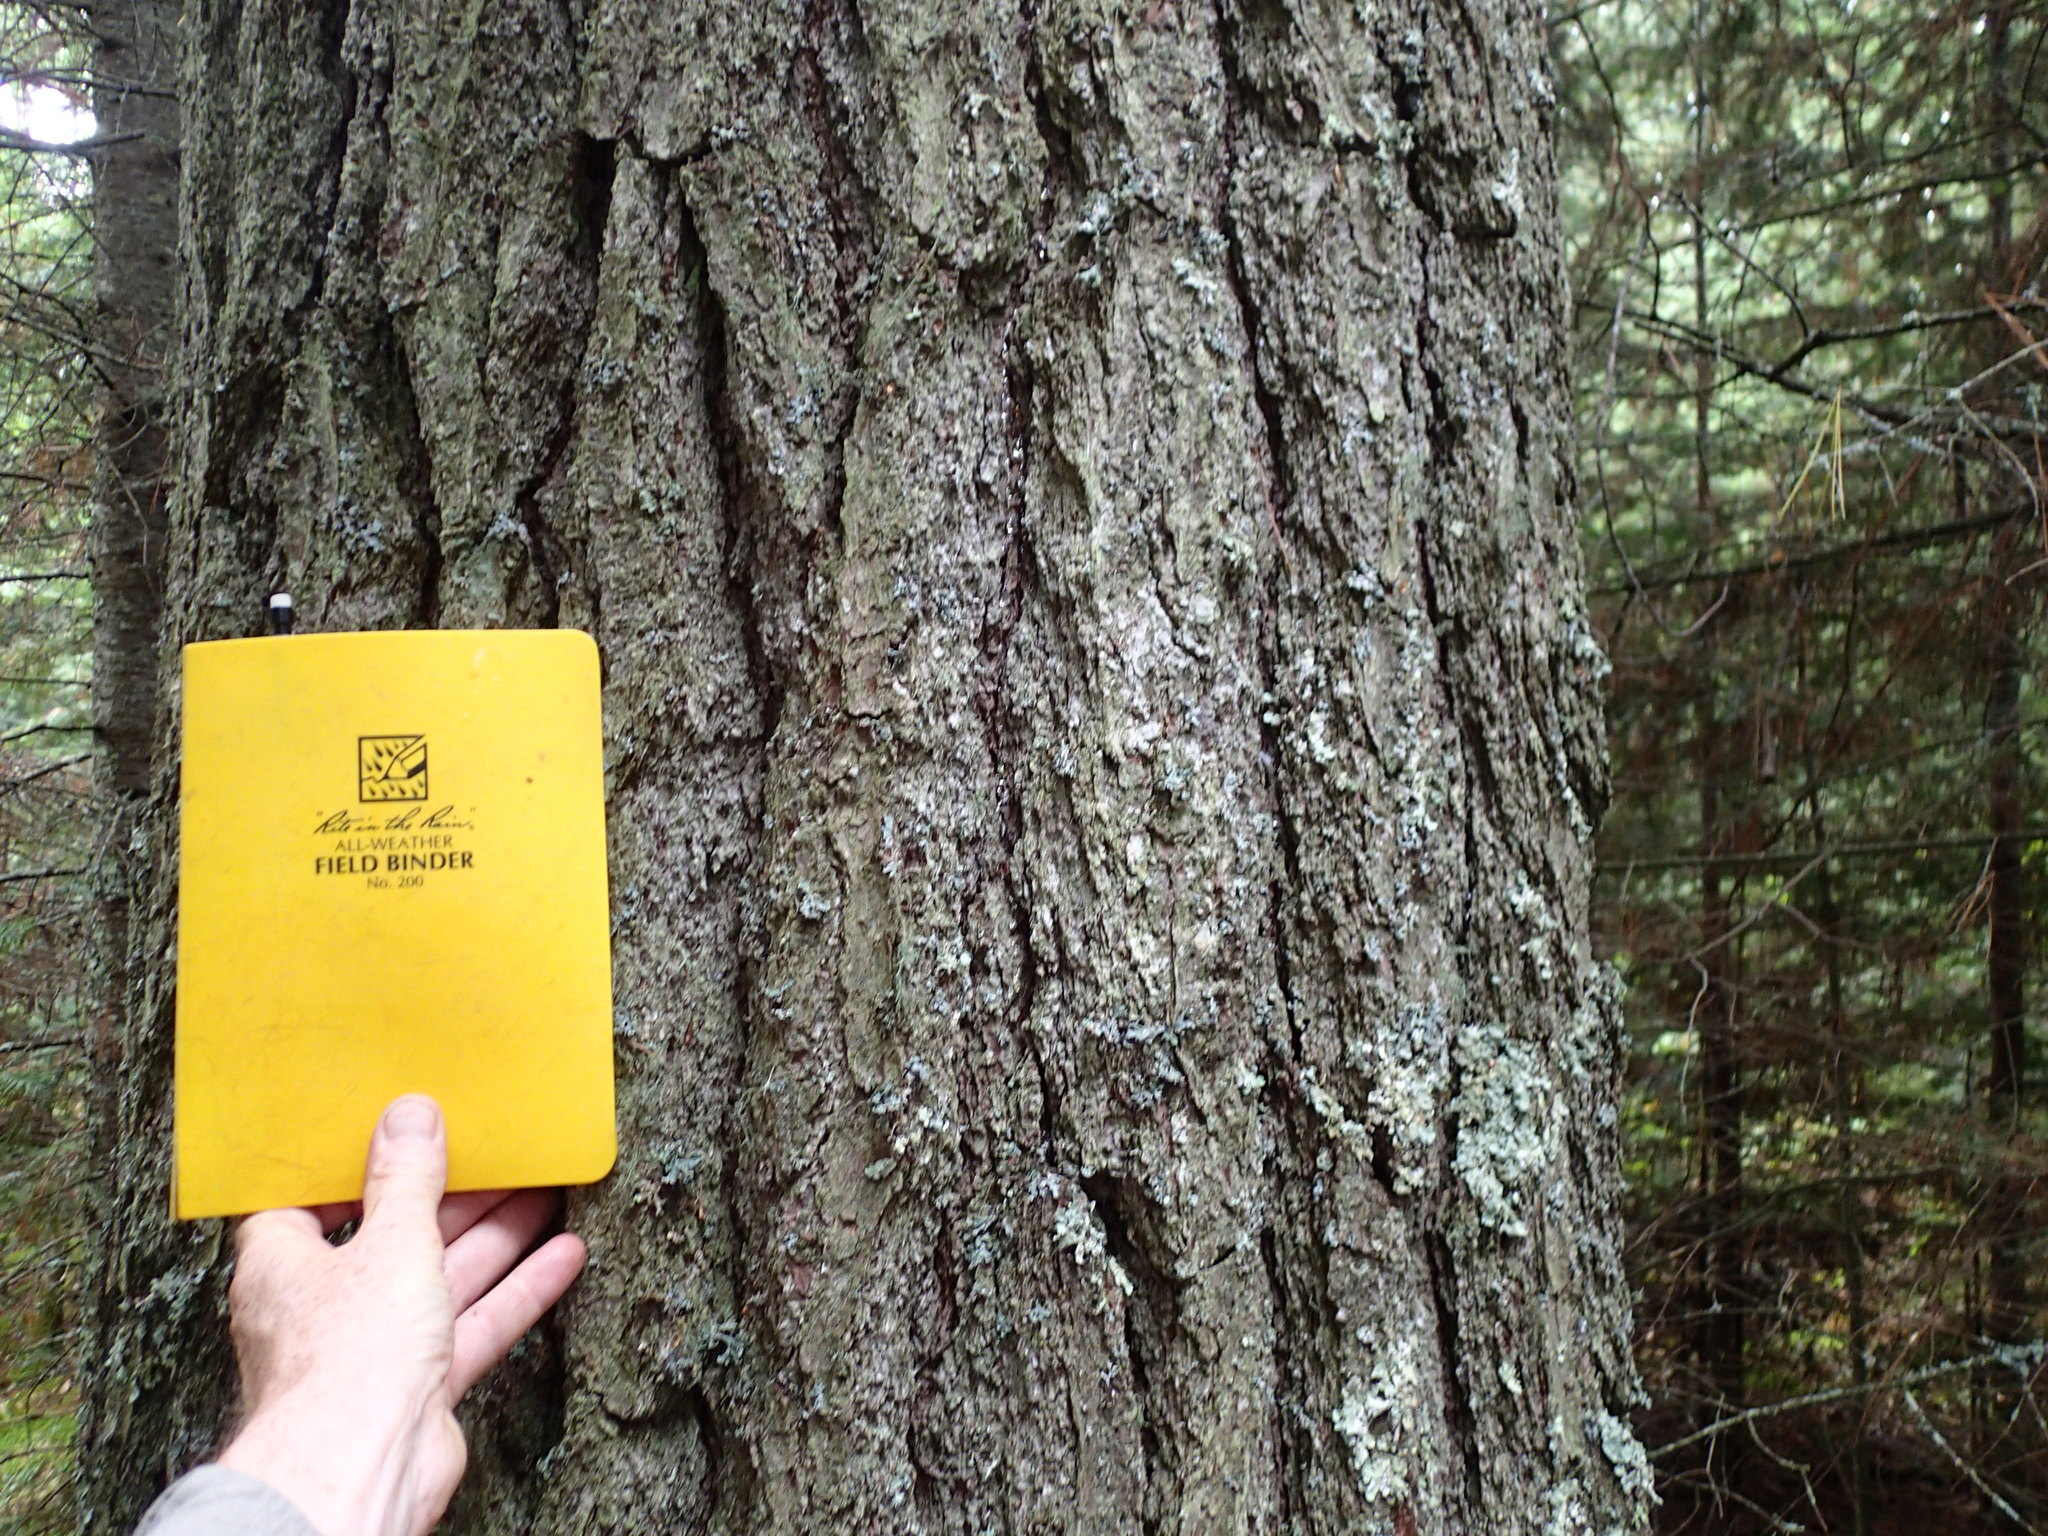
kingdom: Plantae
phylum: Tracheophyta
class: Pinopsida
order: Pinales
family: Pinaceae
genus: Pinus
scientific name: Pinus strobus
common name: Weymouth pine
